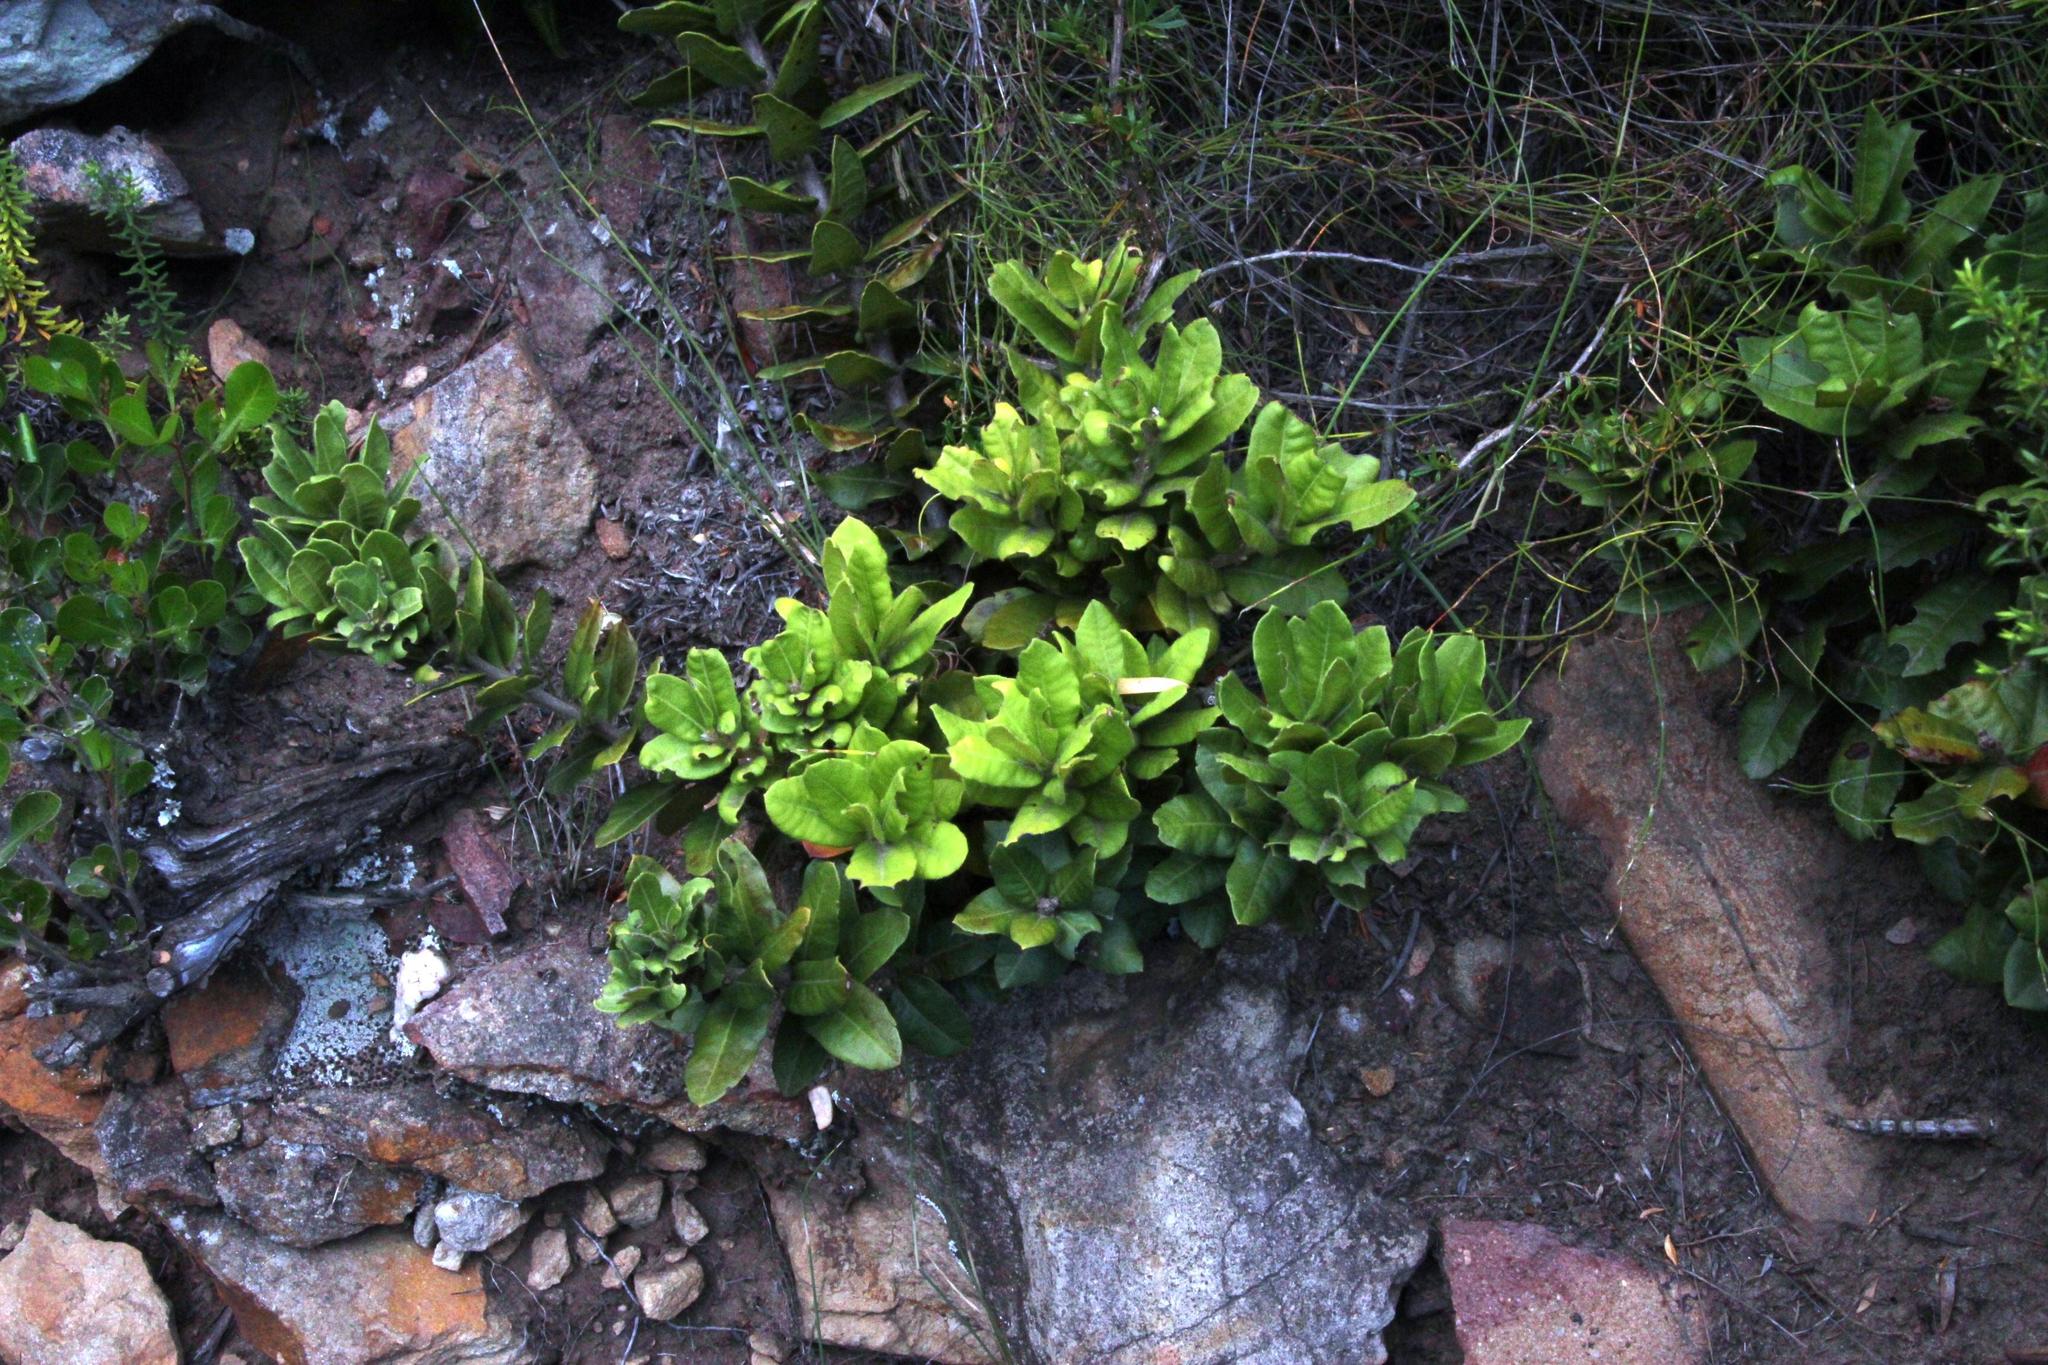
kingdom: Plantae
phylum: Tracheophyta
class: Magnoliopsida
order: Fagales
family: Myricaceae
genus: Morella
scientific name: Morella kraussiana
